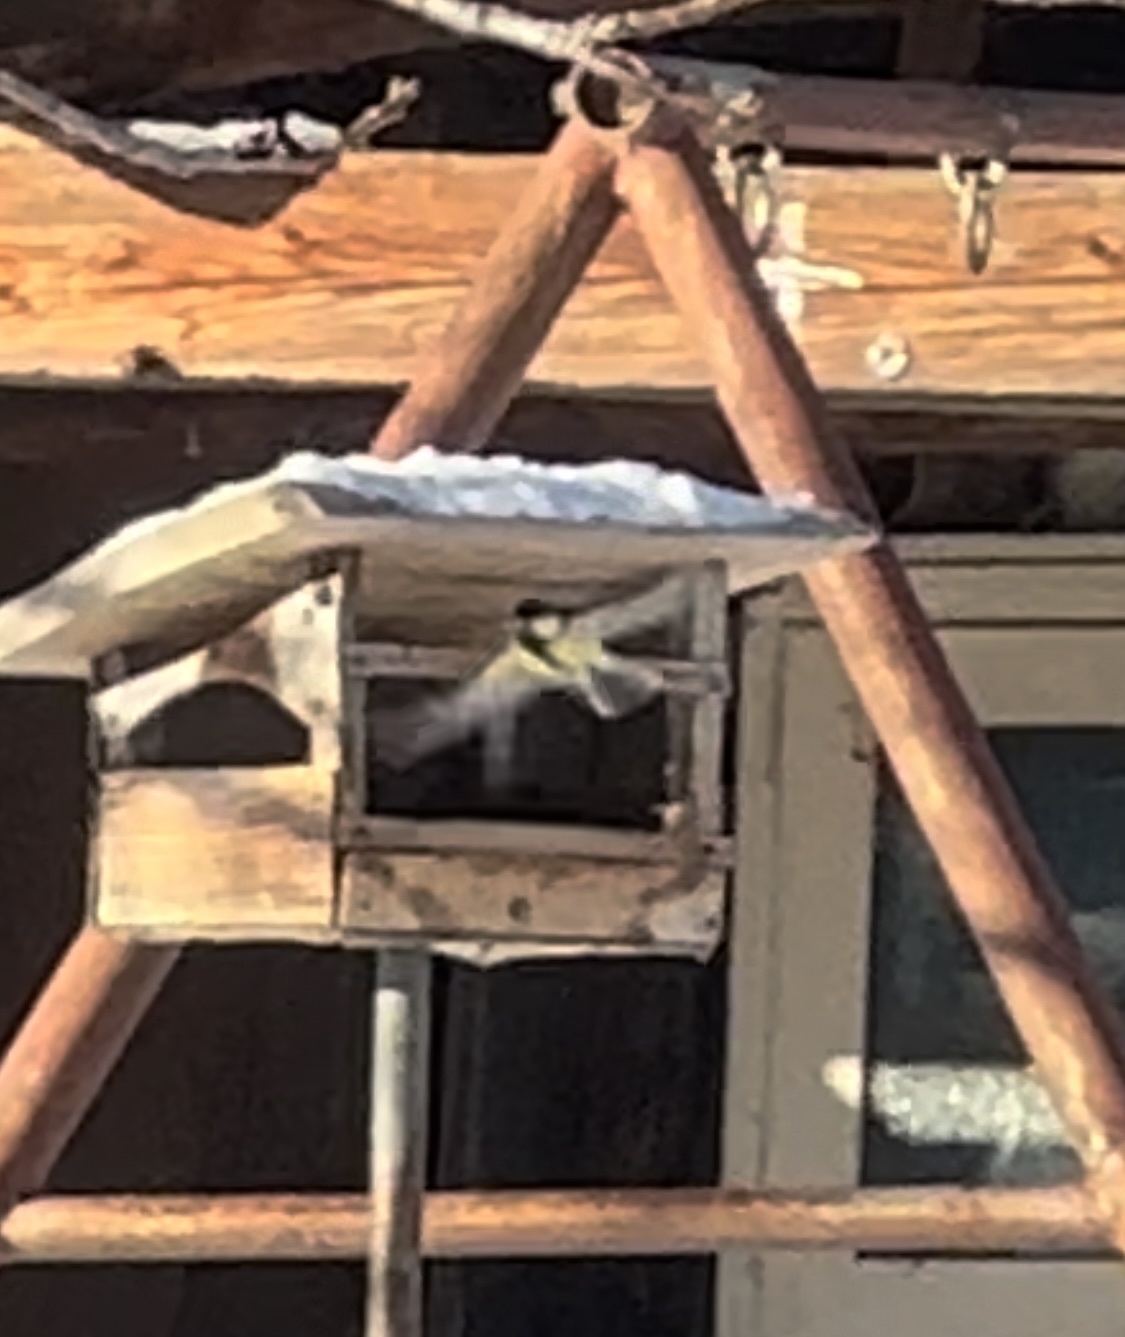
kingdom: Animalia
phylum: Chordata
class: Aves
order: Passeriformes
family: Paridae
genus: Parus
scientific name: Parus major
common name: Great tit
